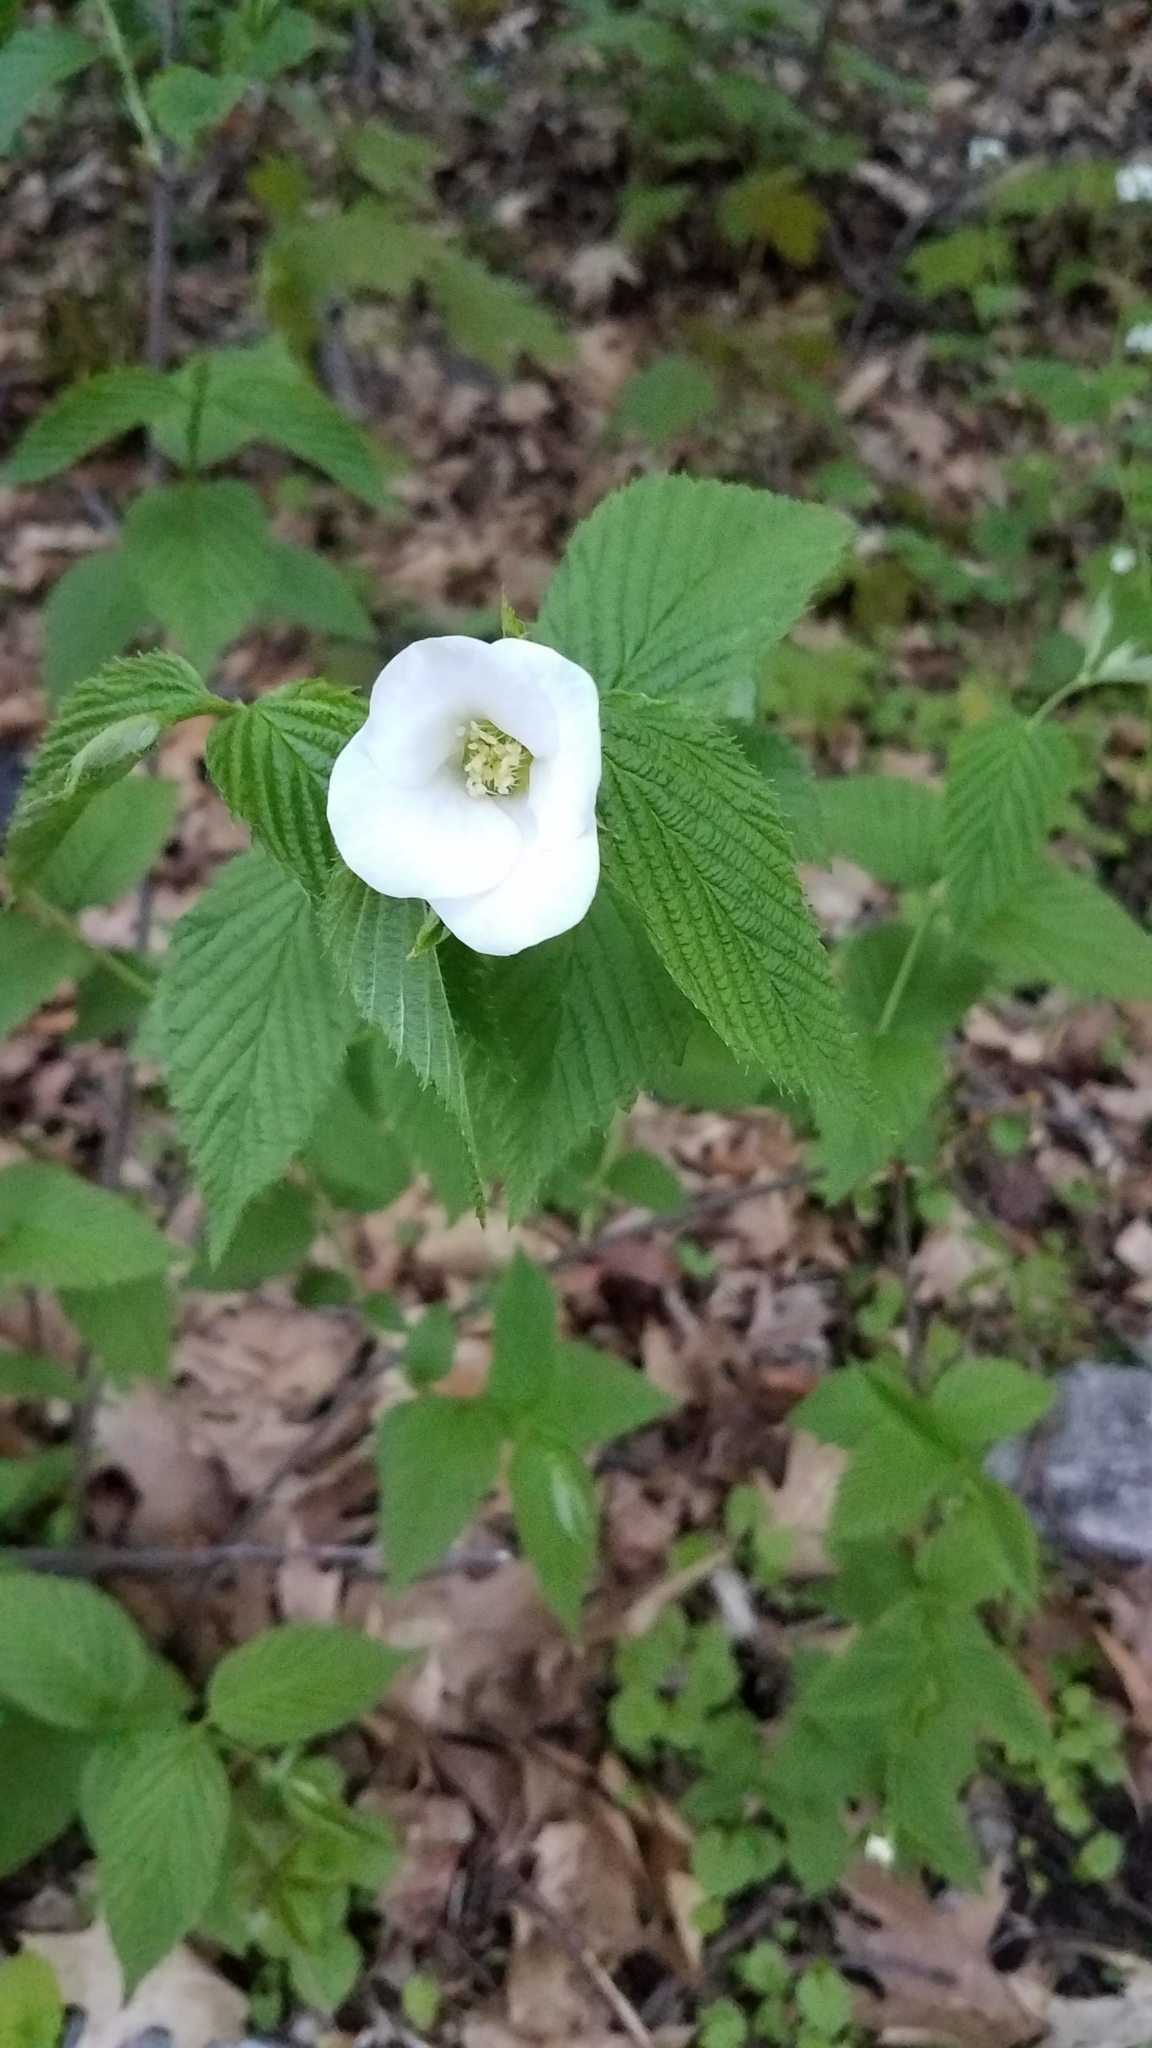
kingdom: Plantae
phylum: Tracheophyta
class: Magnoliopsida
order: Rosales
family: Rosaceae
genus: Rhodotypos
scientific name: Rhodotypos scandens
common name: Jetbead
